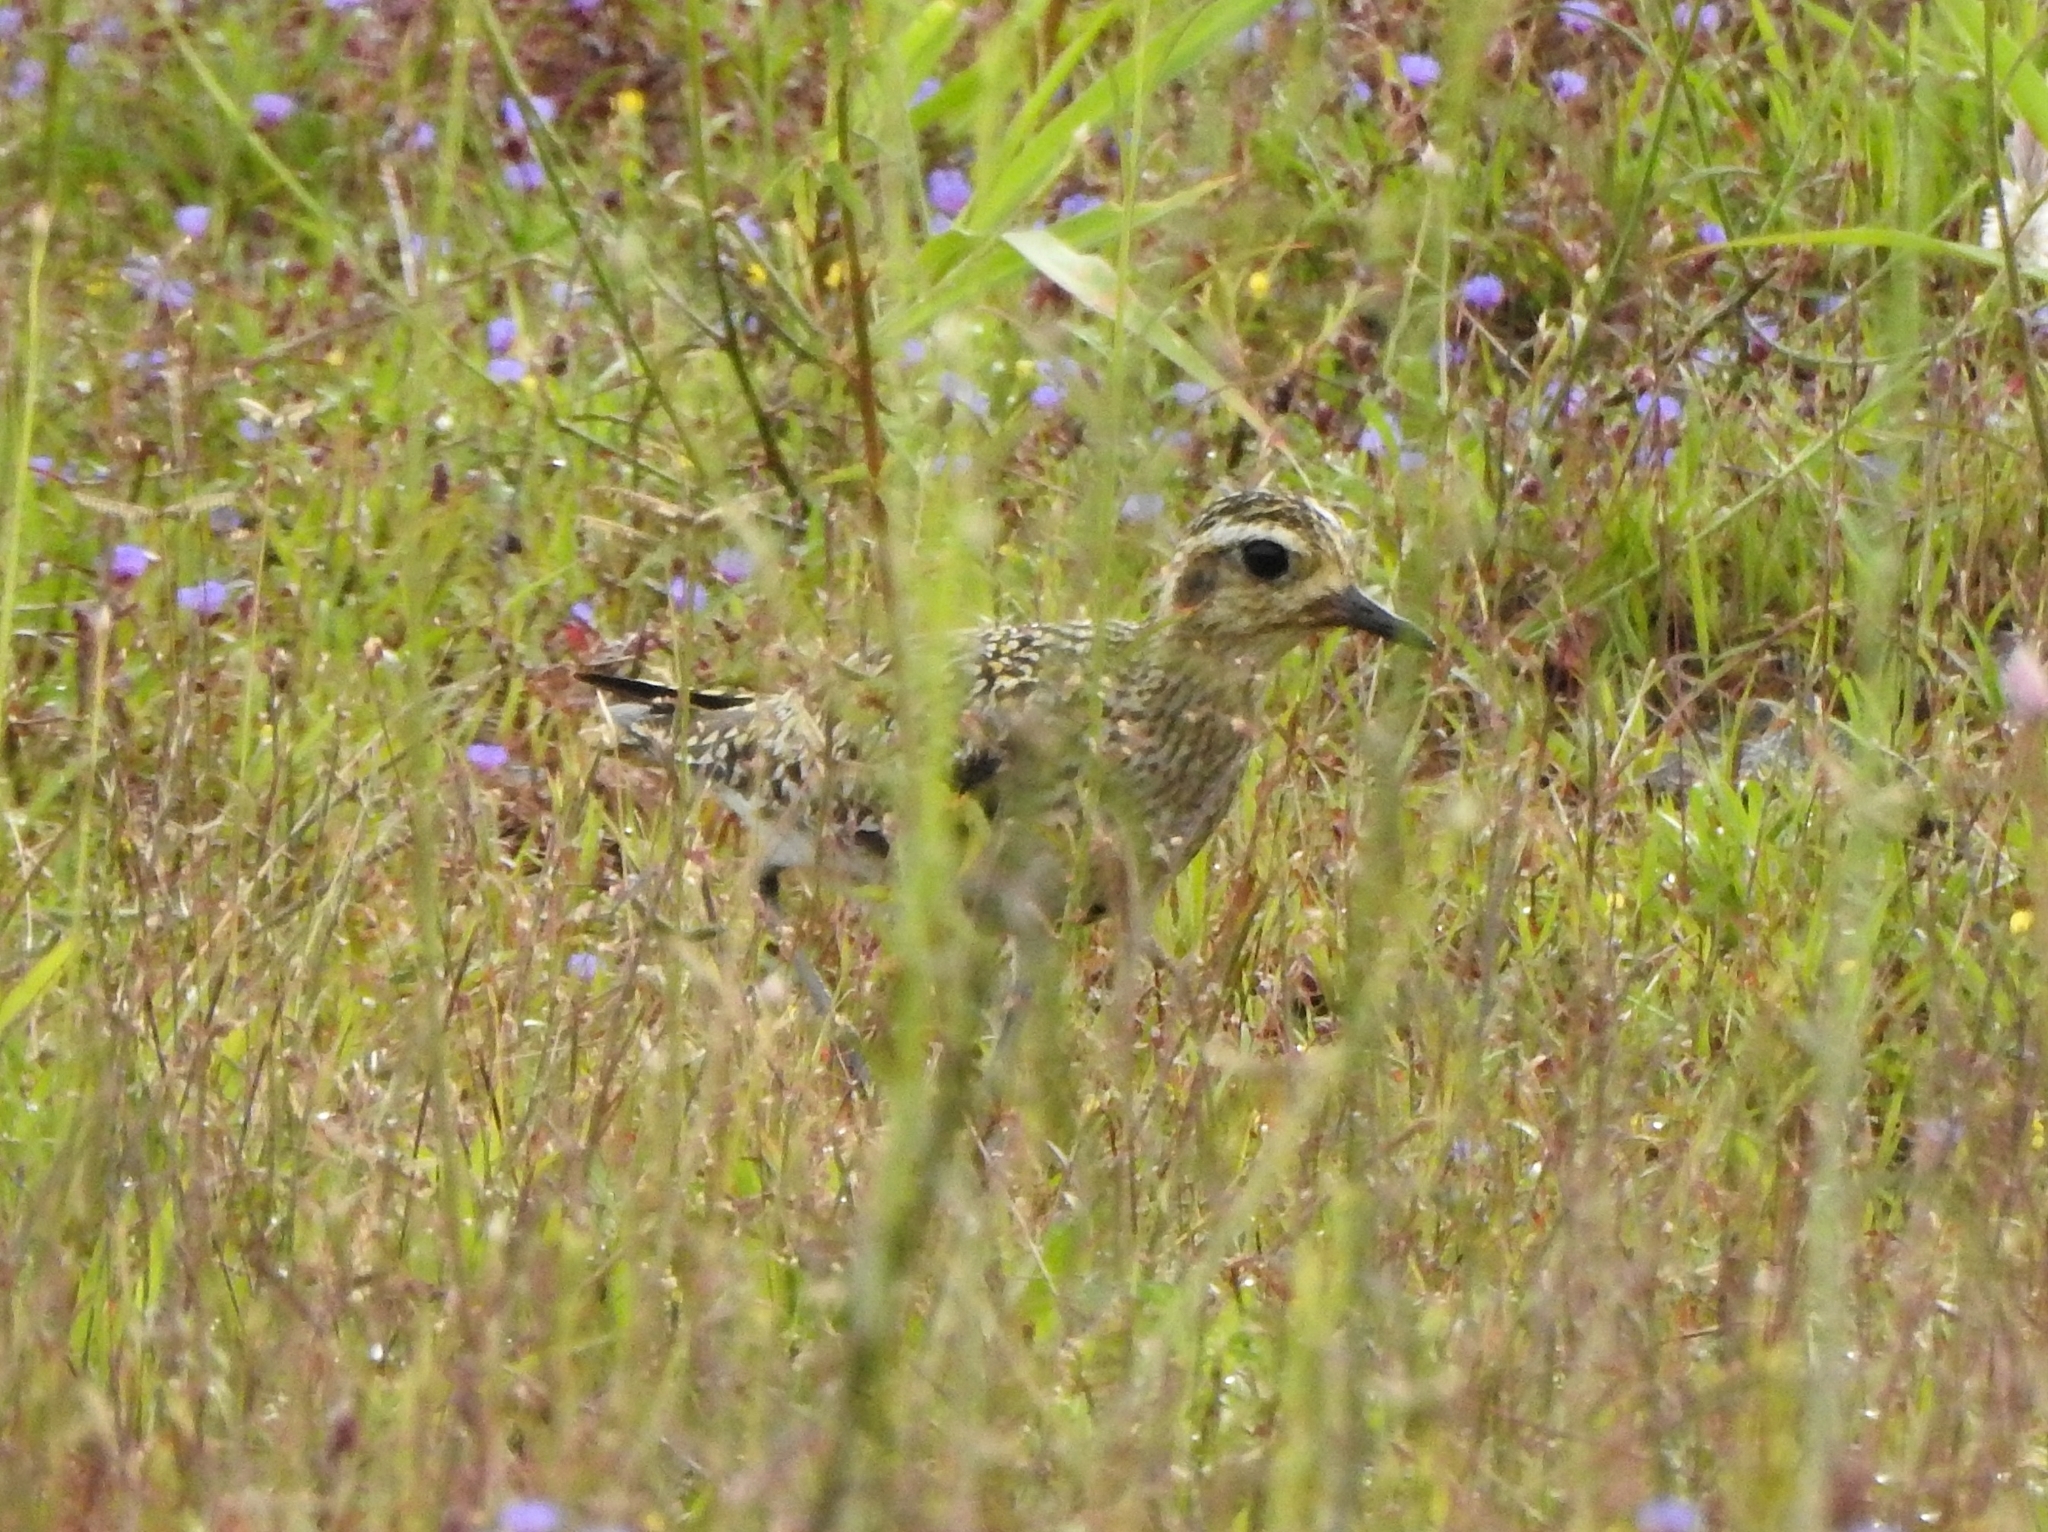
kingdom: Animalia
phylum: Chordata
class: Aves
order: Charadriiformes
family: Charadriidae
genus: Pluvialis
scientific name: Pluvialis fulva
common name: Pacific golden plover
